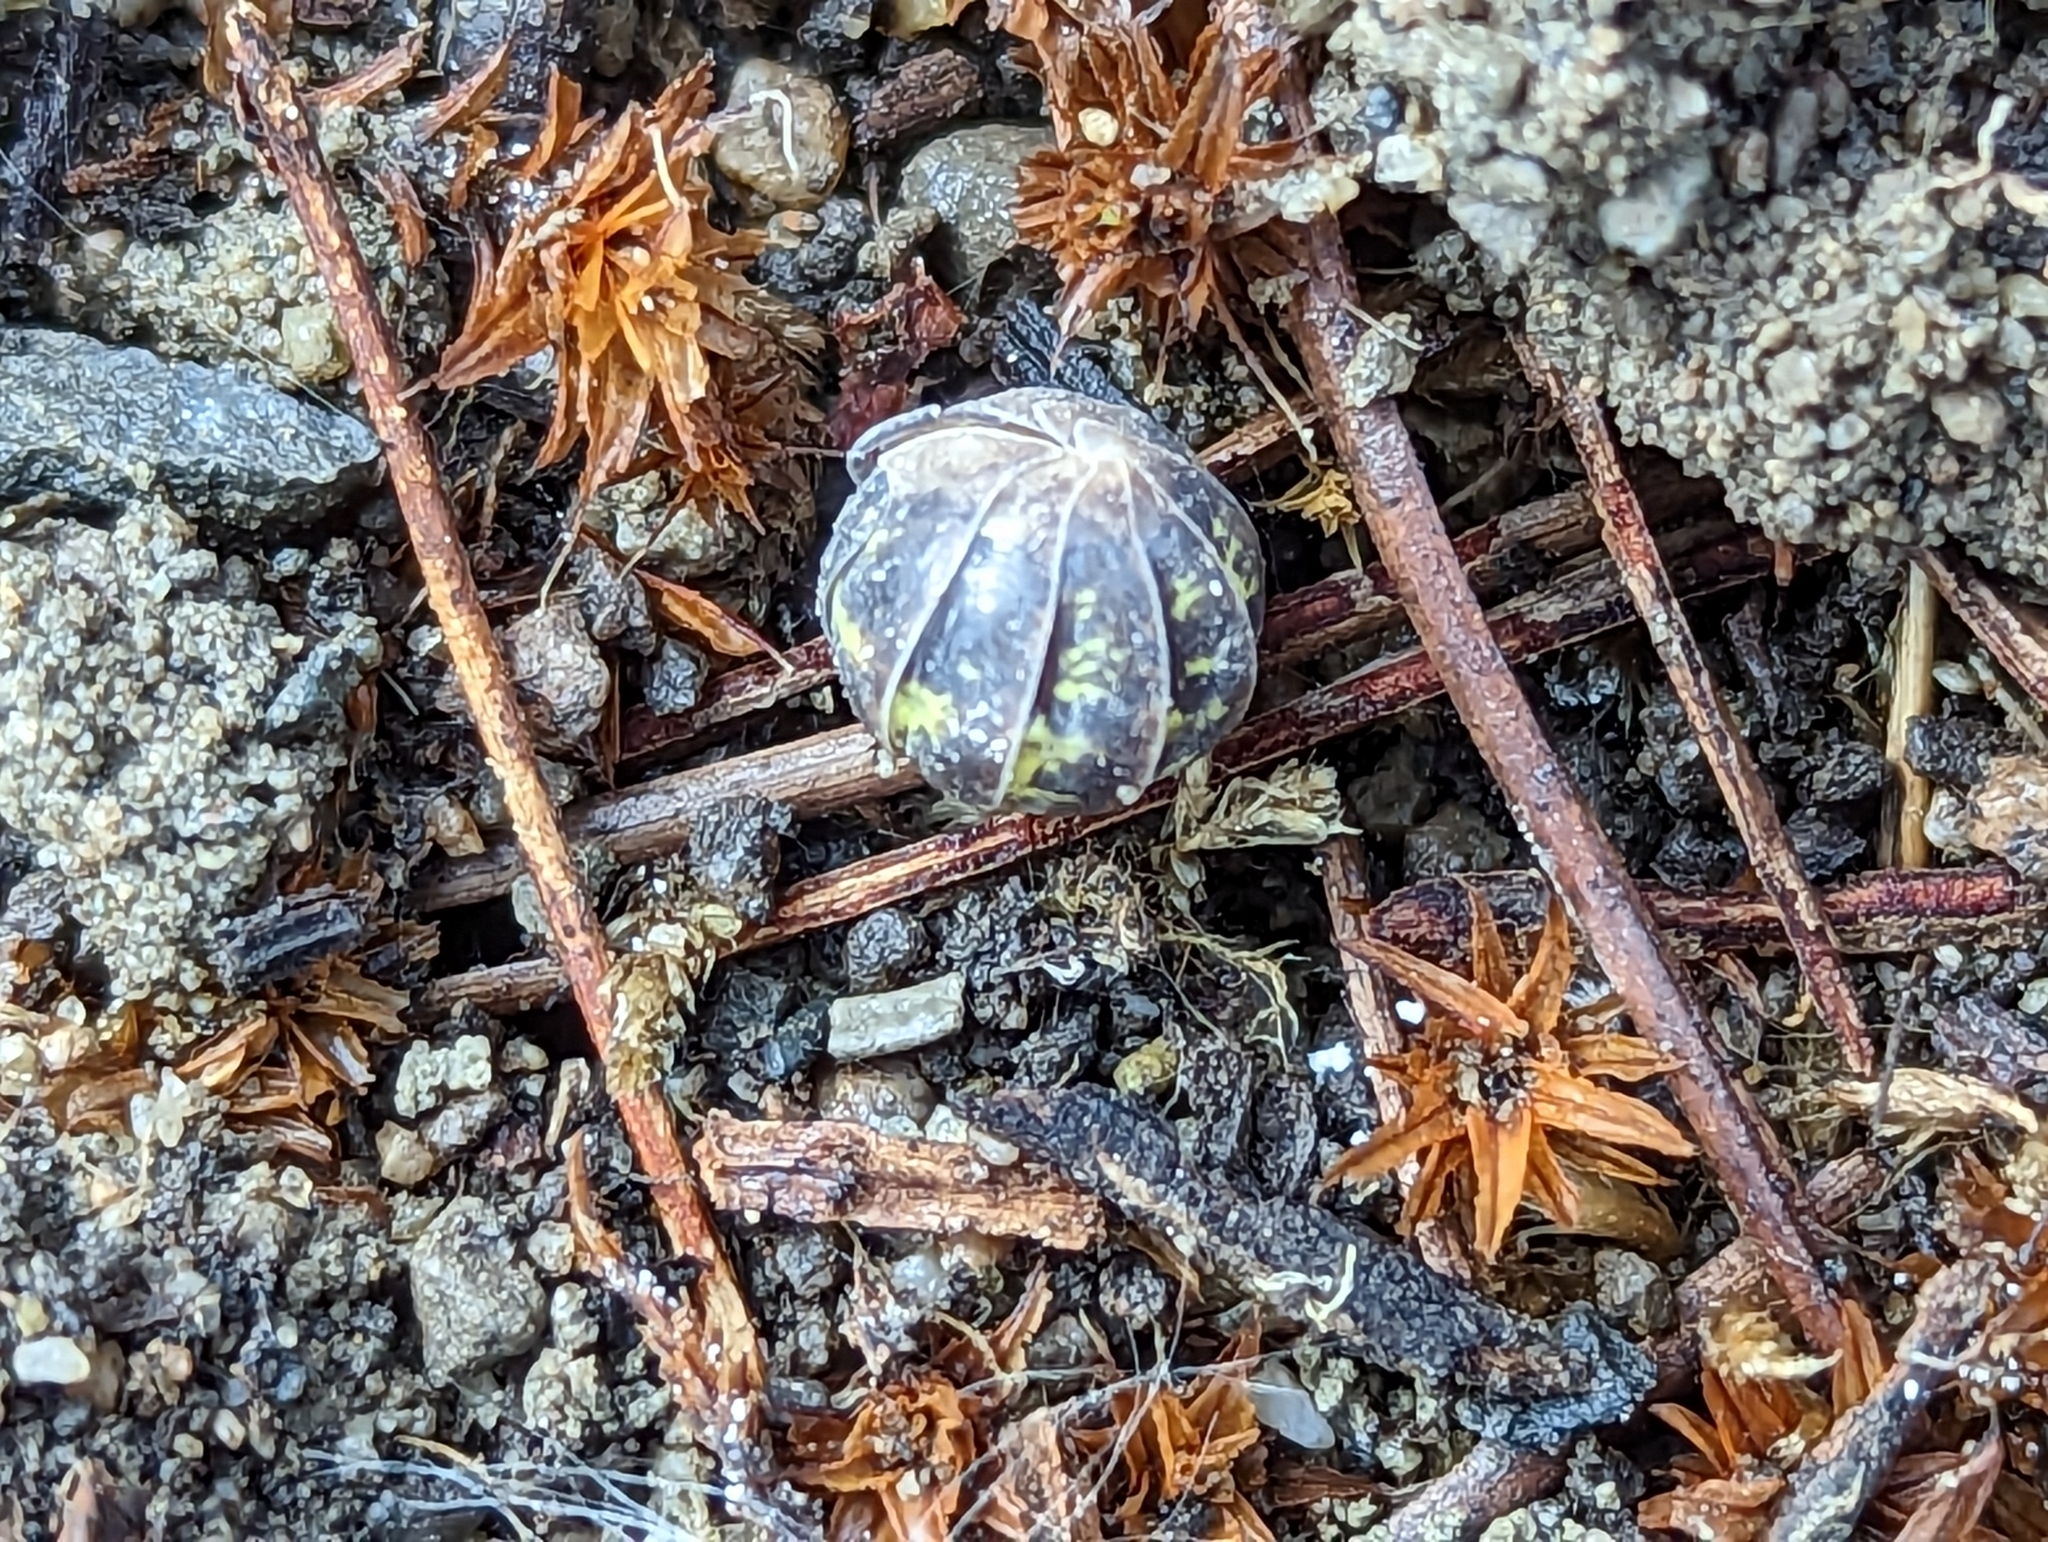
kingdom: Animalia
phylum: Arthropoda
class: Malacostraca
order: Isopoda
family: Armadillidiidae
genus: Armadillidium
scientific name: Armadillidium vulgare
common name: Common pill woodlouse
